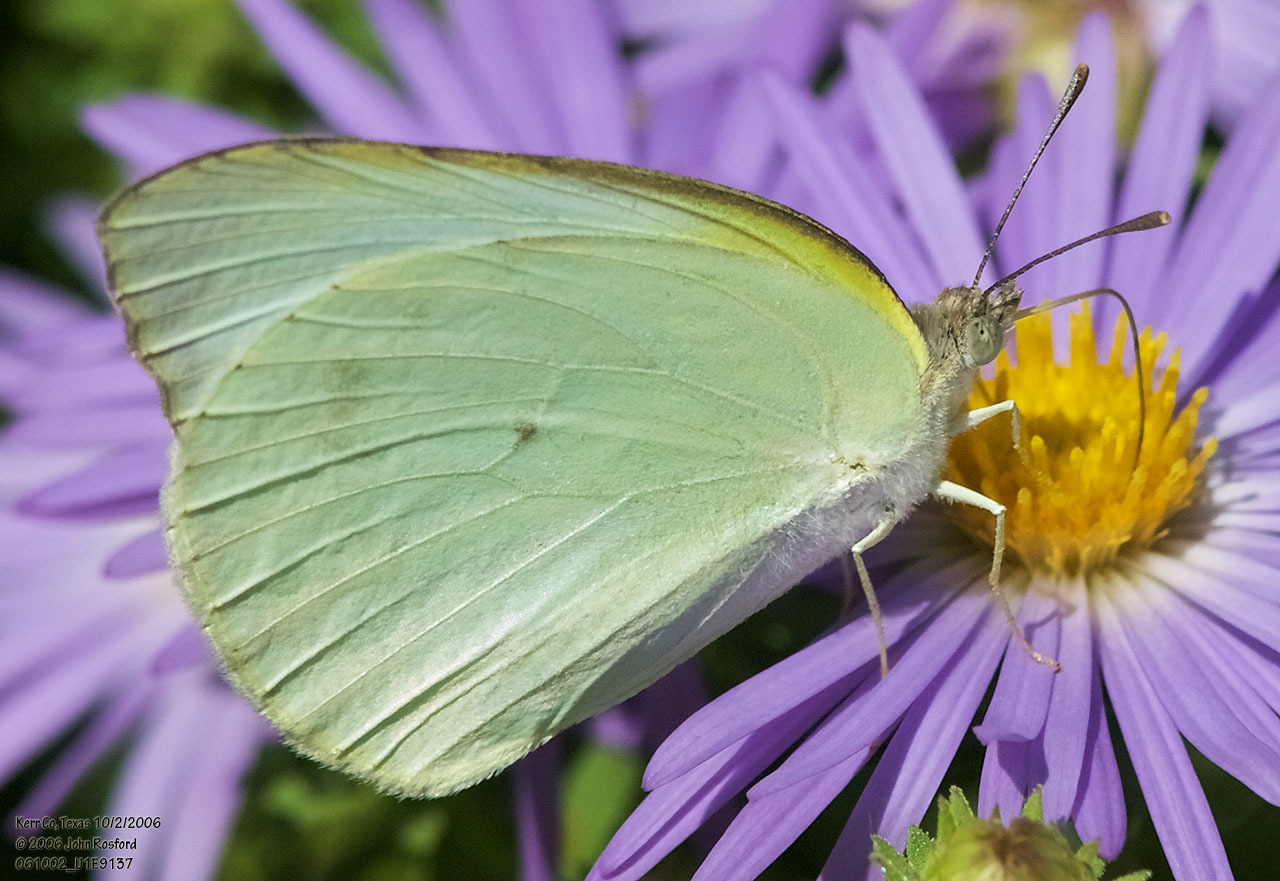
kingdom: Animalia
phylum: Arthropoda
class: Insecta
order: Lepidoptera
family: Pieridae
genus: Kricogonia
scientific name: Kricogonia lyside
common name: Guayacan sulphur,
